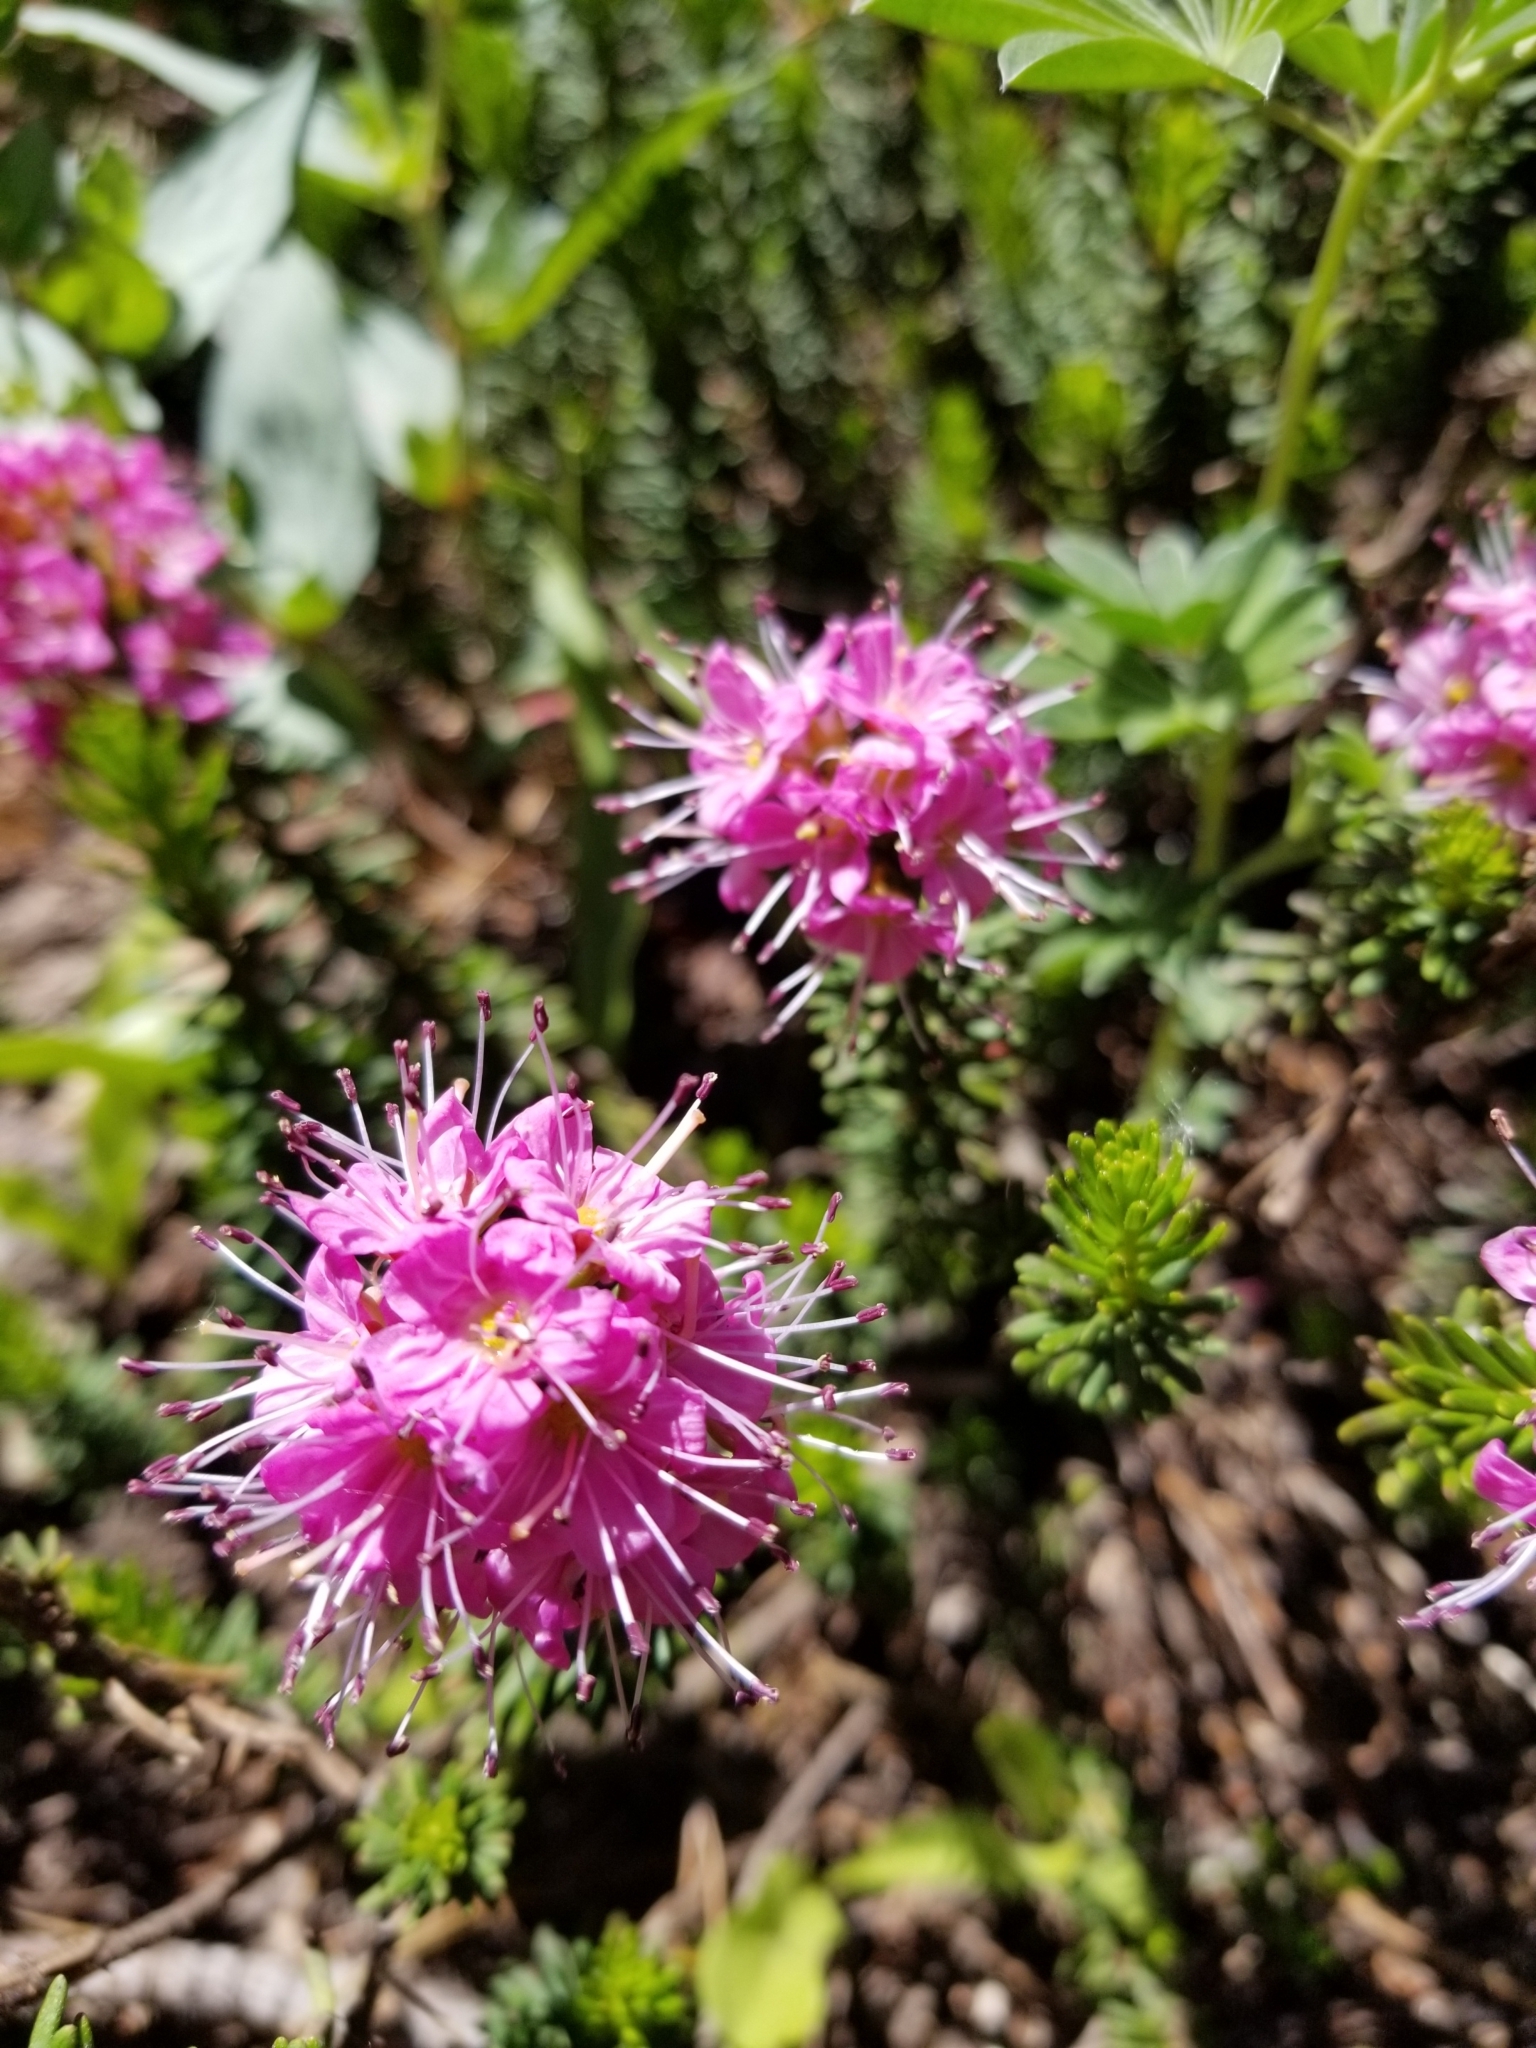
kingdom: Plantae
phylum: Tracheophyta
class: Magnoliopsida
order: Ericales
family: Ericaceae
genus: Phyllodoce
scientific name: Phyllodoce breweri
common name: Brewer's mountain-heather
